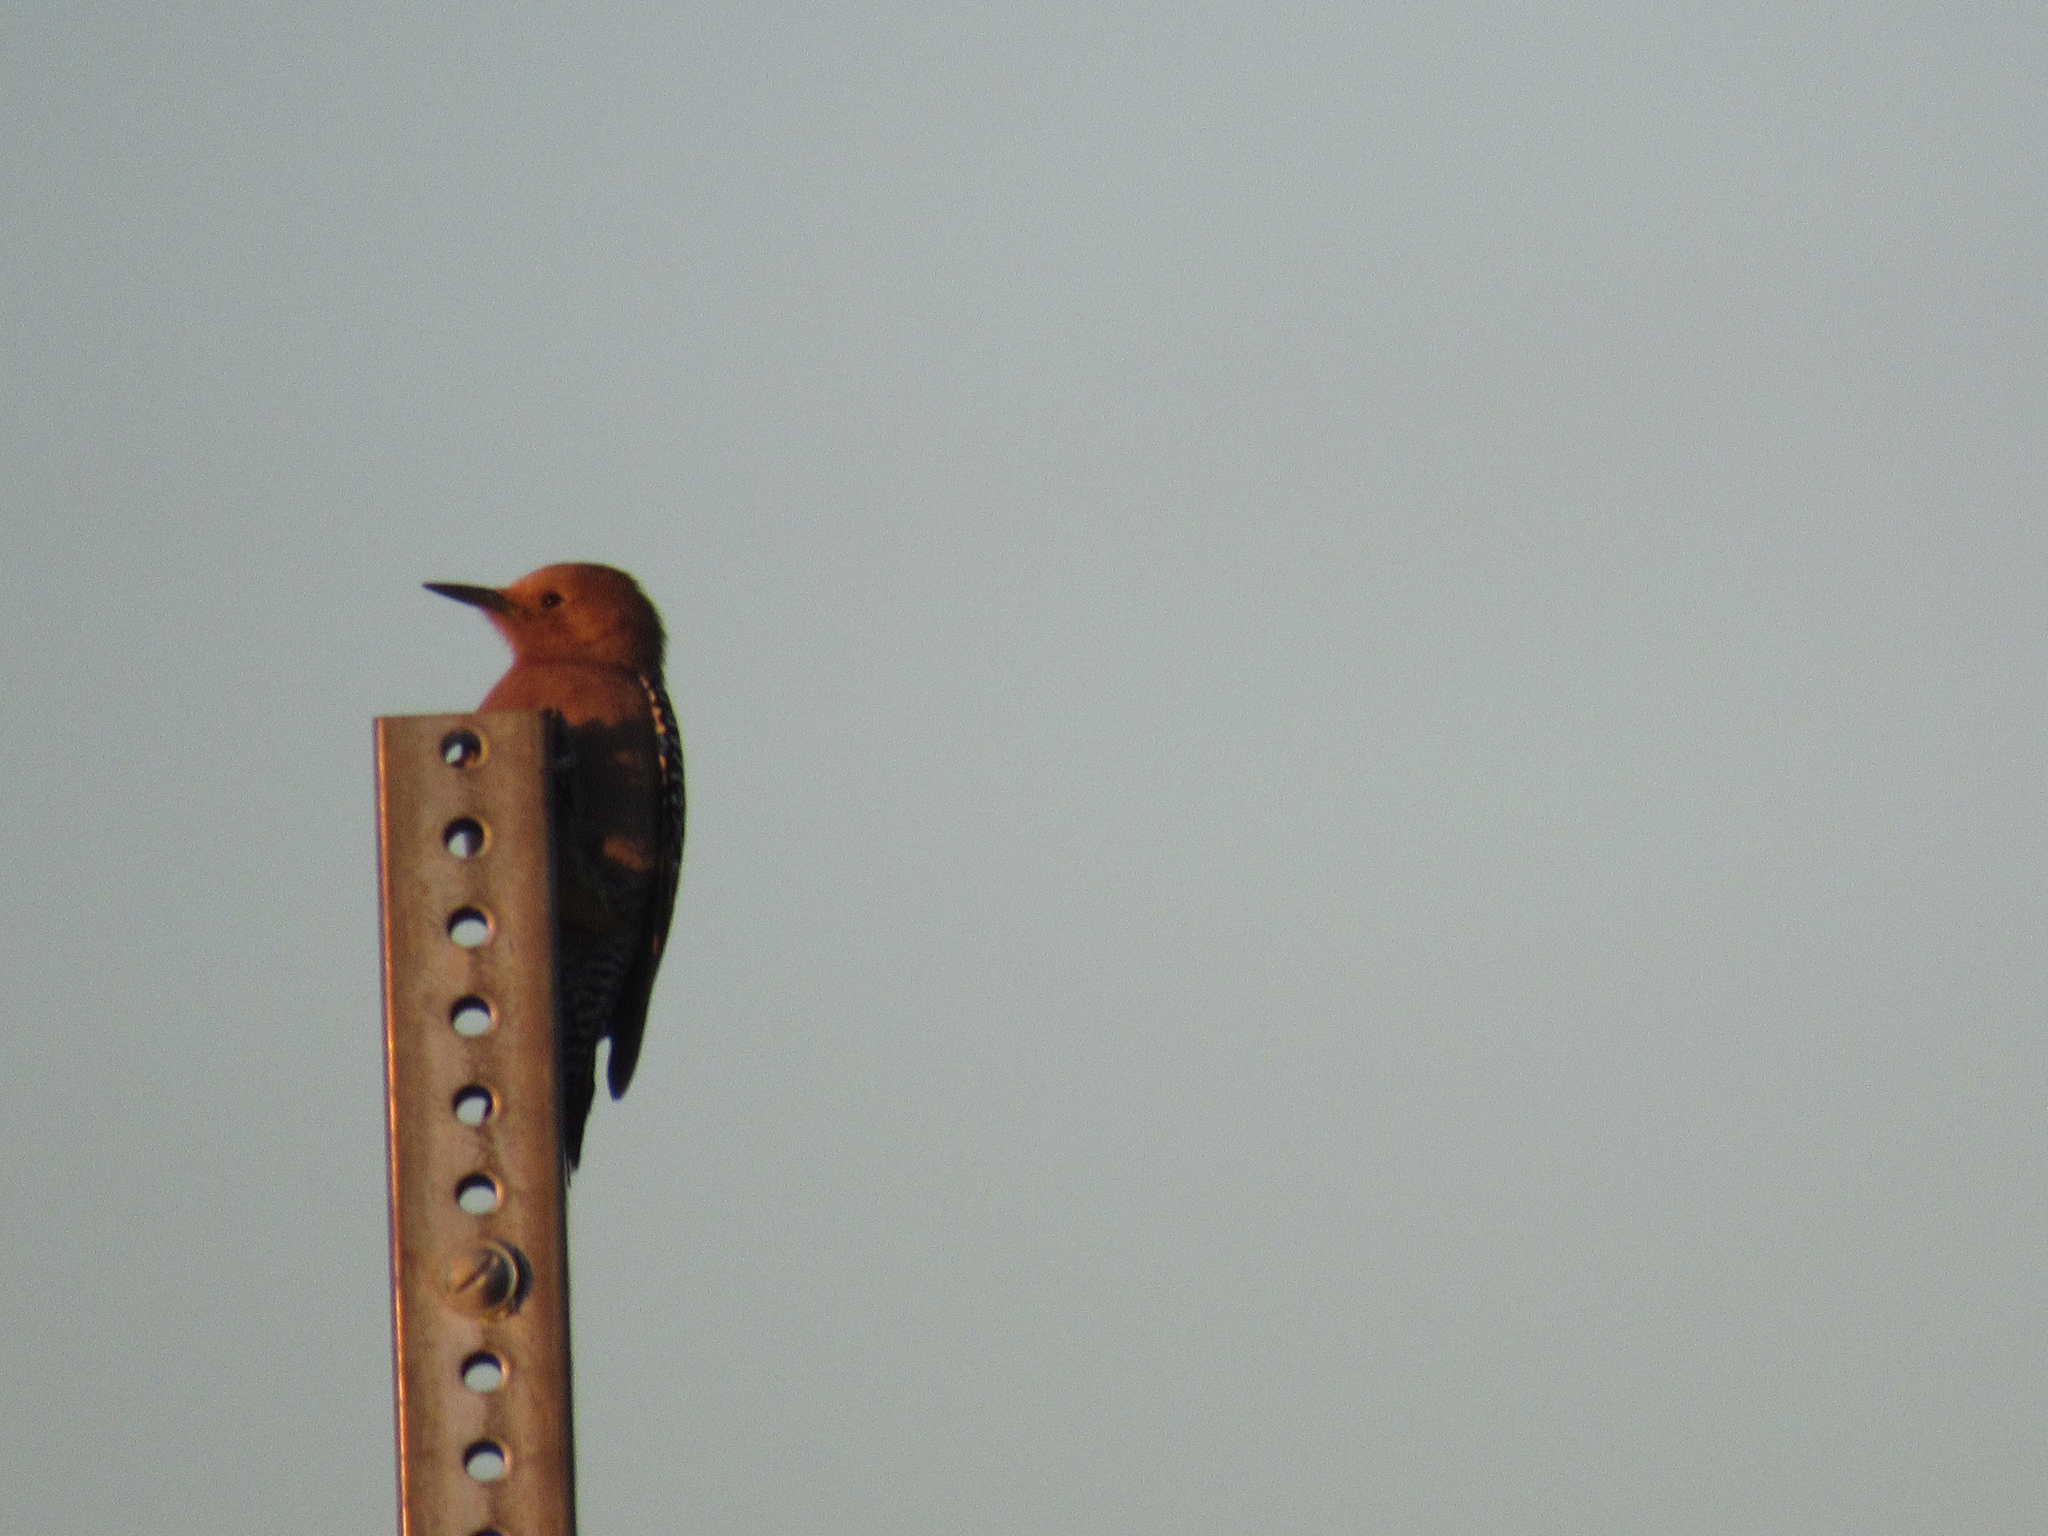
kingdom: Animalia
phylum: Chordata
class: Aves
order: Piciformes
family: Picidae
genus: Melanerpes
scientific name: Melanerpes uropygialis
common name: Gila woodpecker
